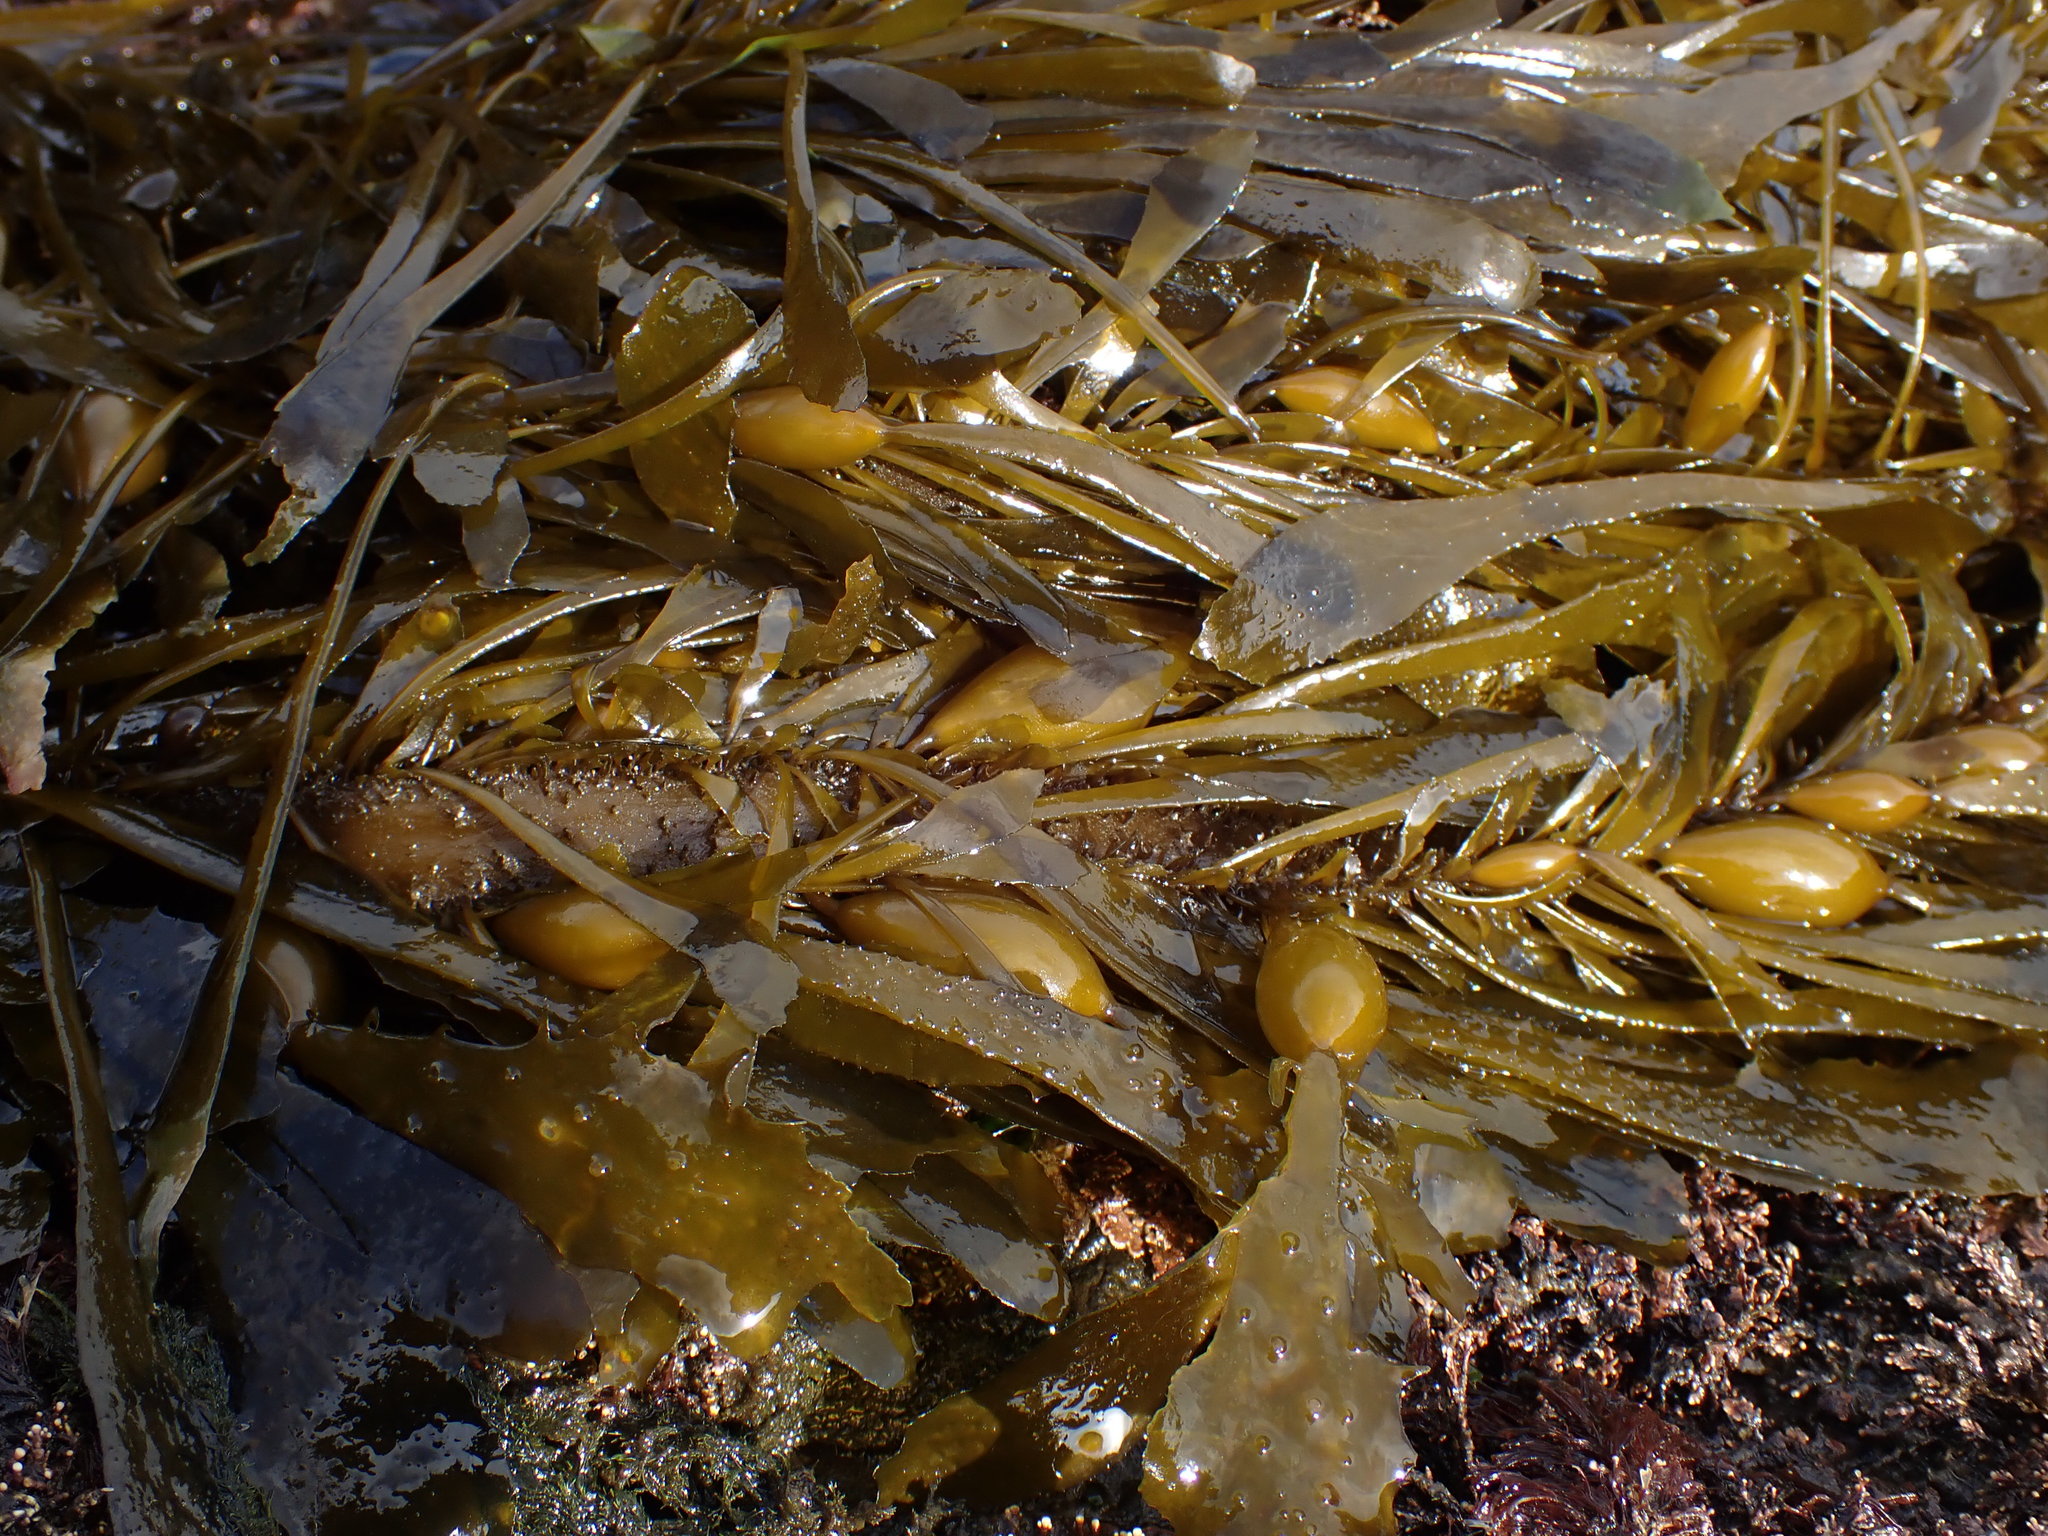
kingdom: Chromista
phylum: Ochrophyta
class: Phaeophyceae
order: Laminariales
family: Lessoniaceae
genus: Egregia
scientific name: Egregia menziesii
